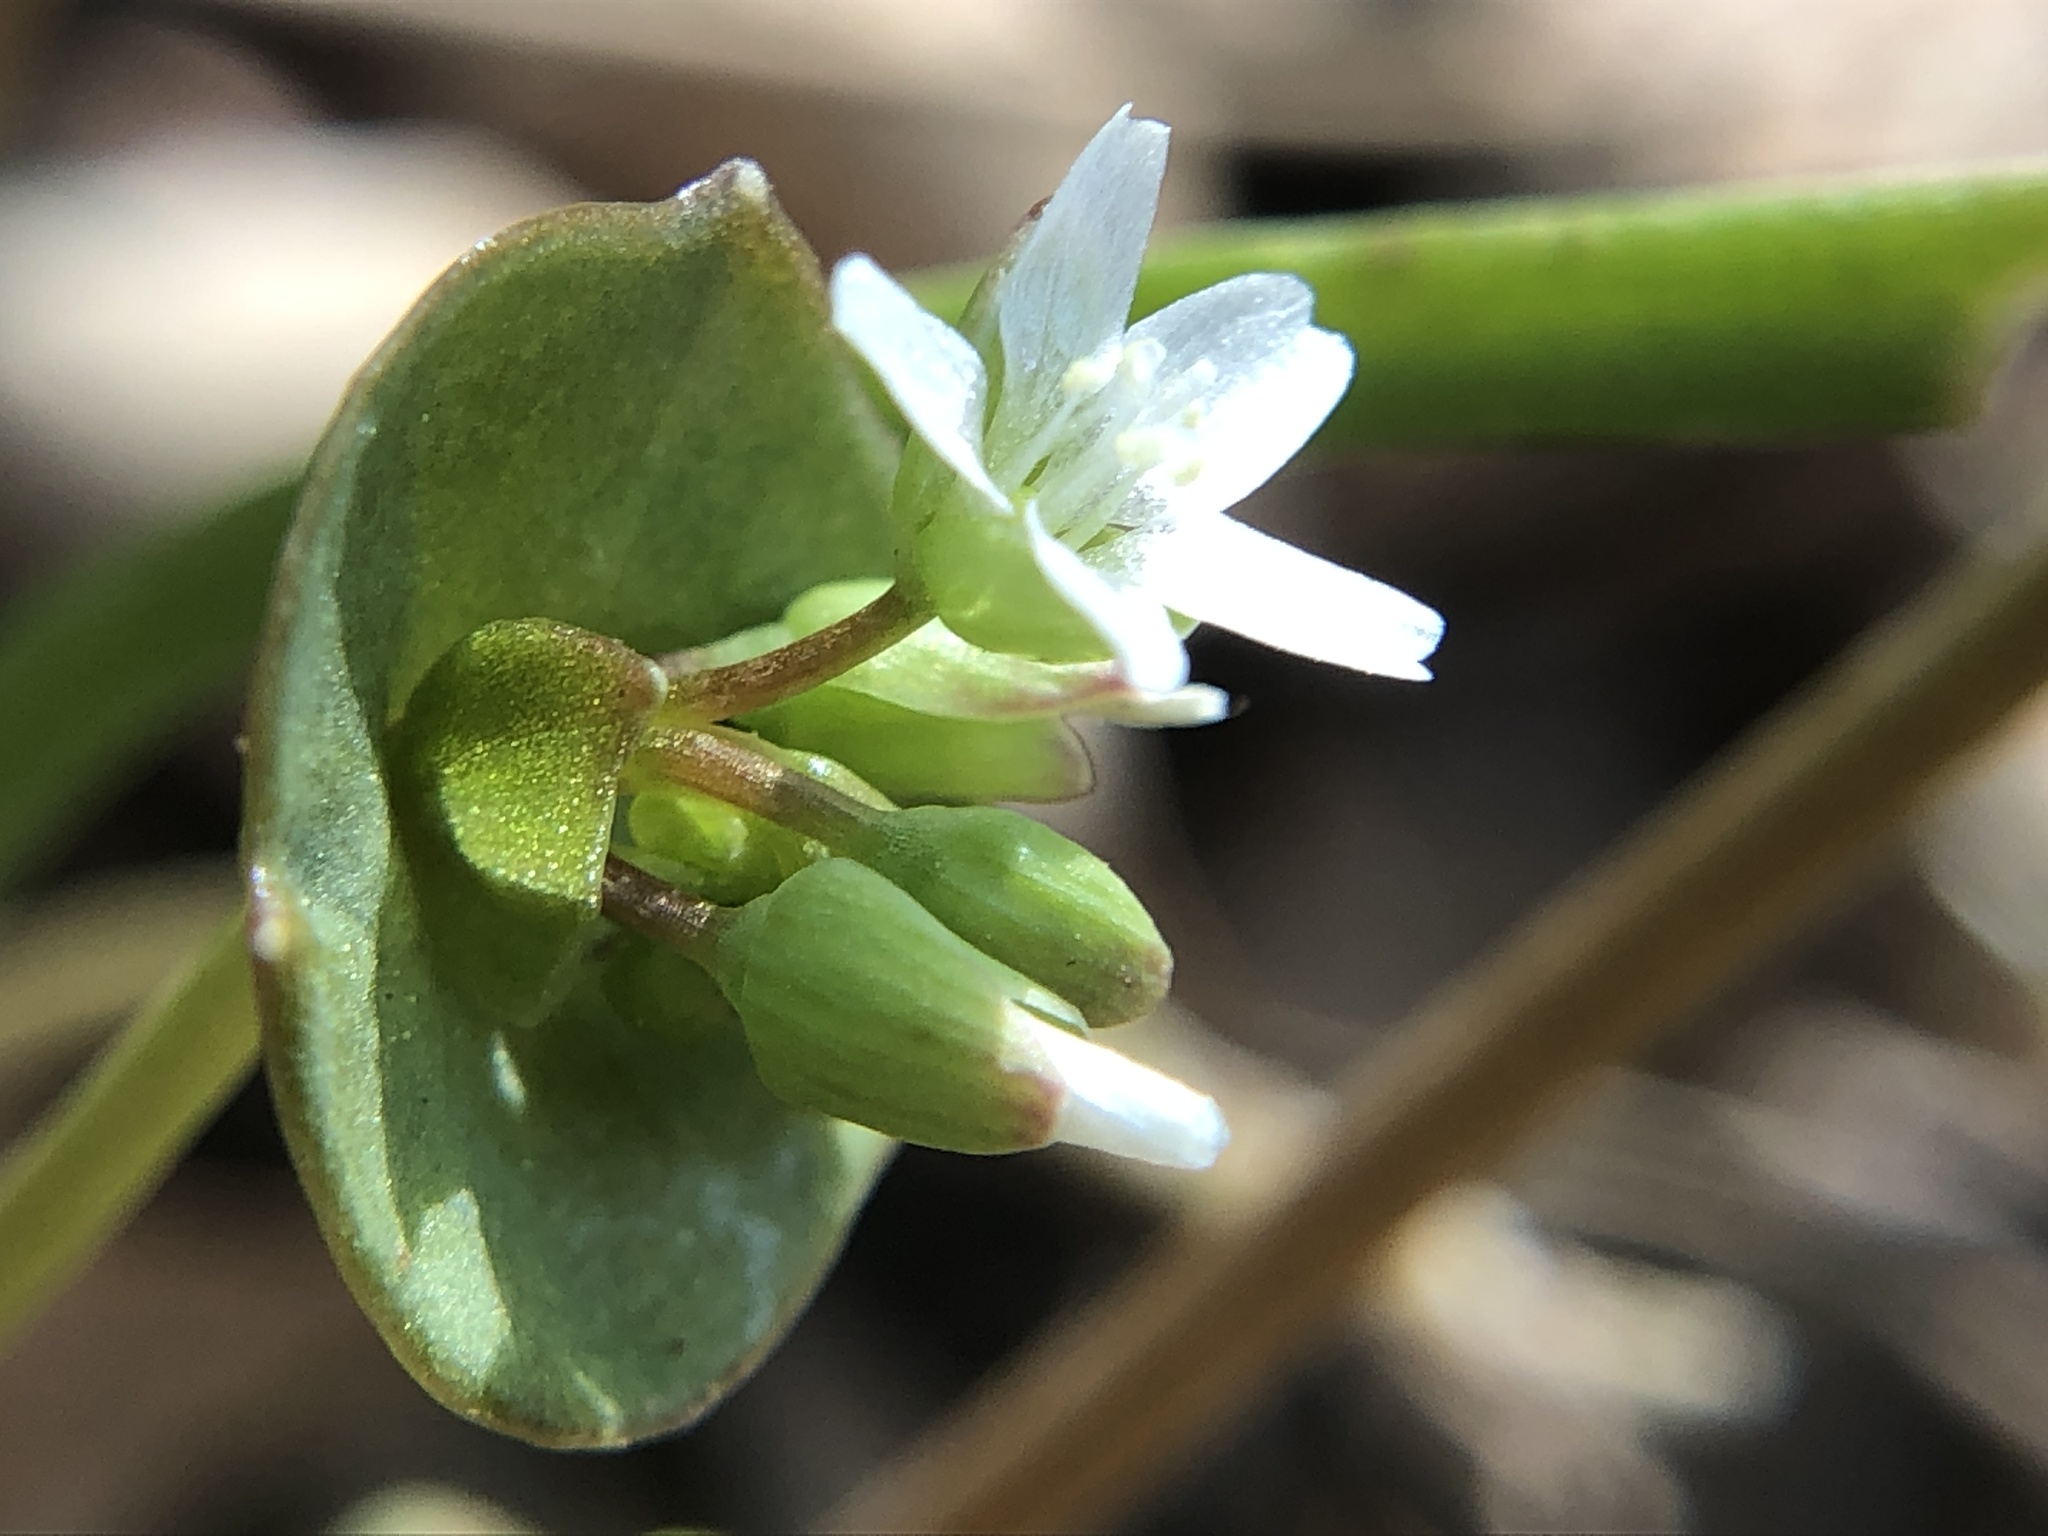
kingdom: Plantae
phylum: Tracheophyta
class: Magnoliopsida
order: Caryophyllales
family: Montiaceae
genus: Claytonia
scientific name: Claytonia parviflora
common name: Indian-lettuce
